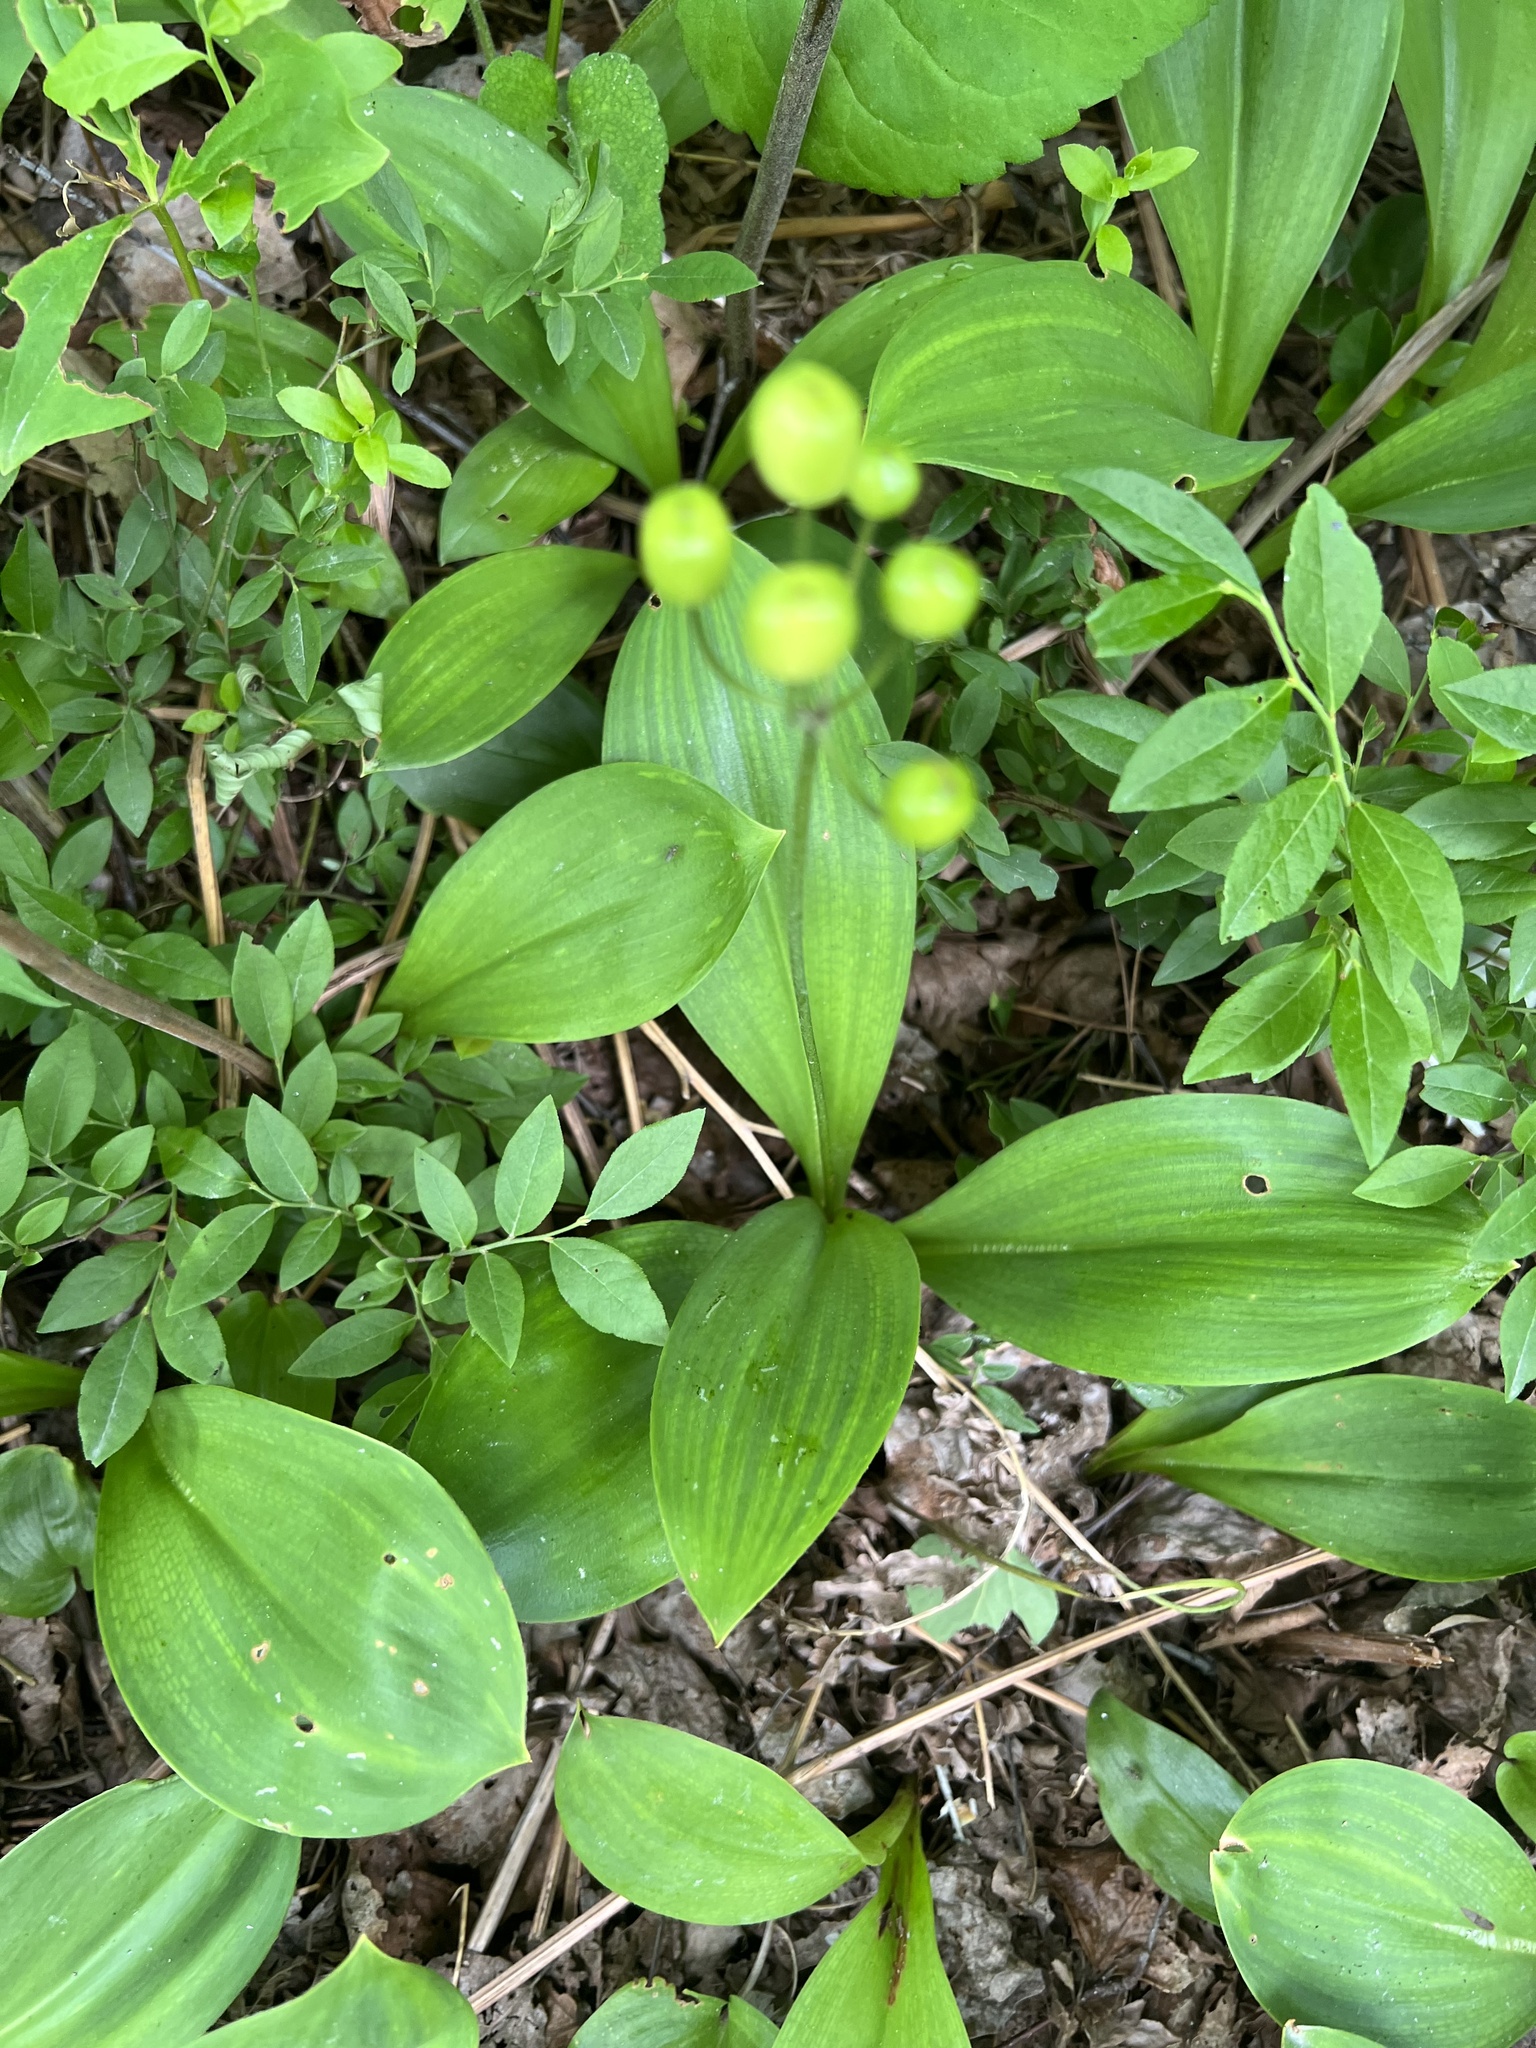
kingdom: Plantae
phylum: Tracheophyta
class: Liliopsida
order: Liliales
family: Liliaceae
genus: Clintonia
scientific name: Clintonia borealis
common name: Yellow clintonia
